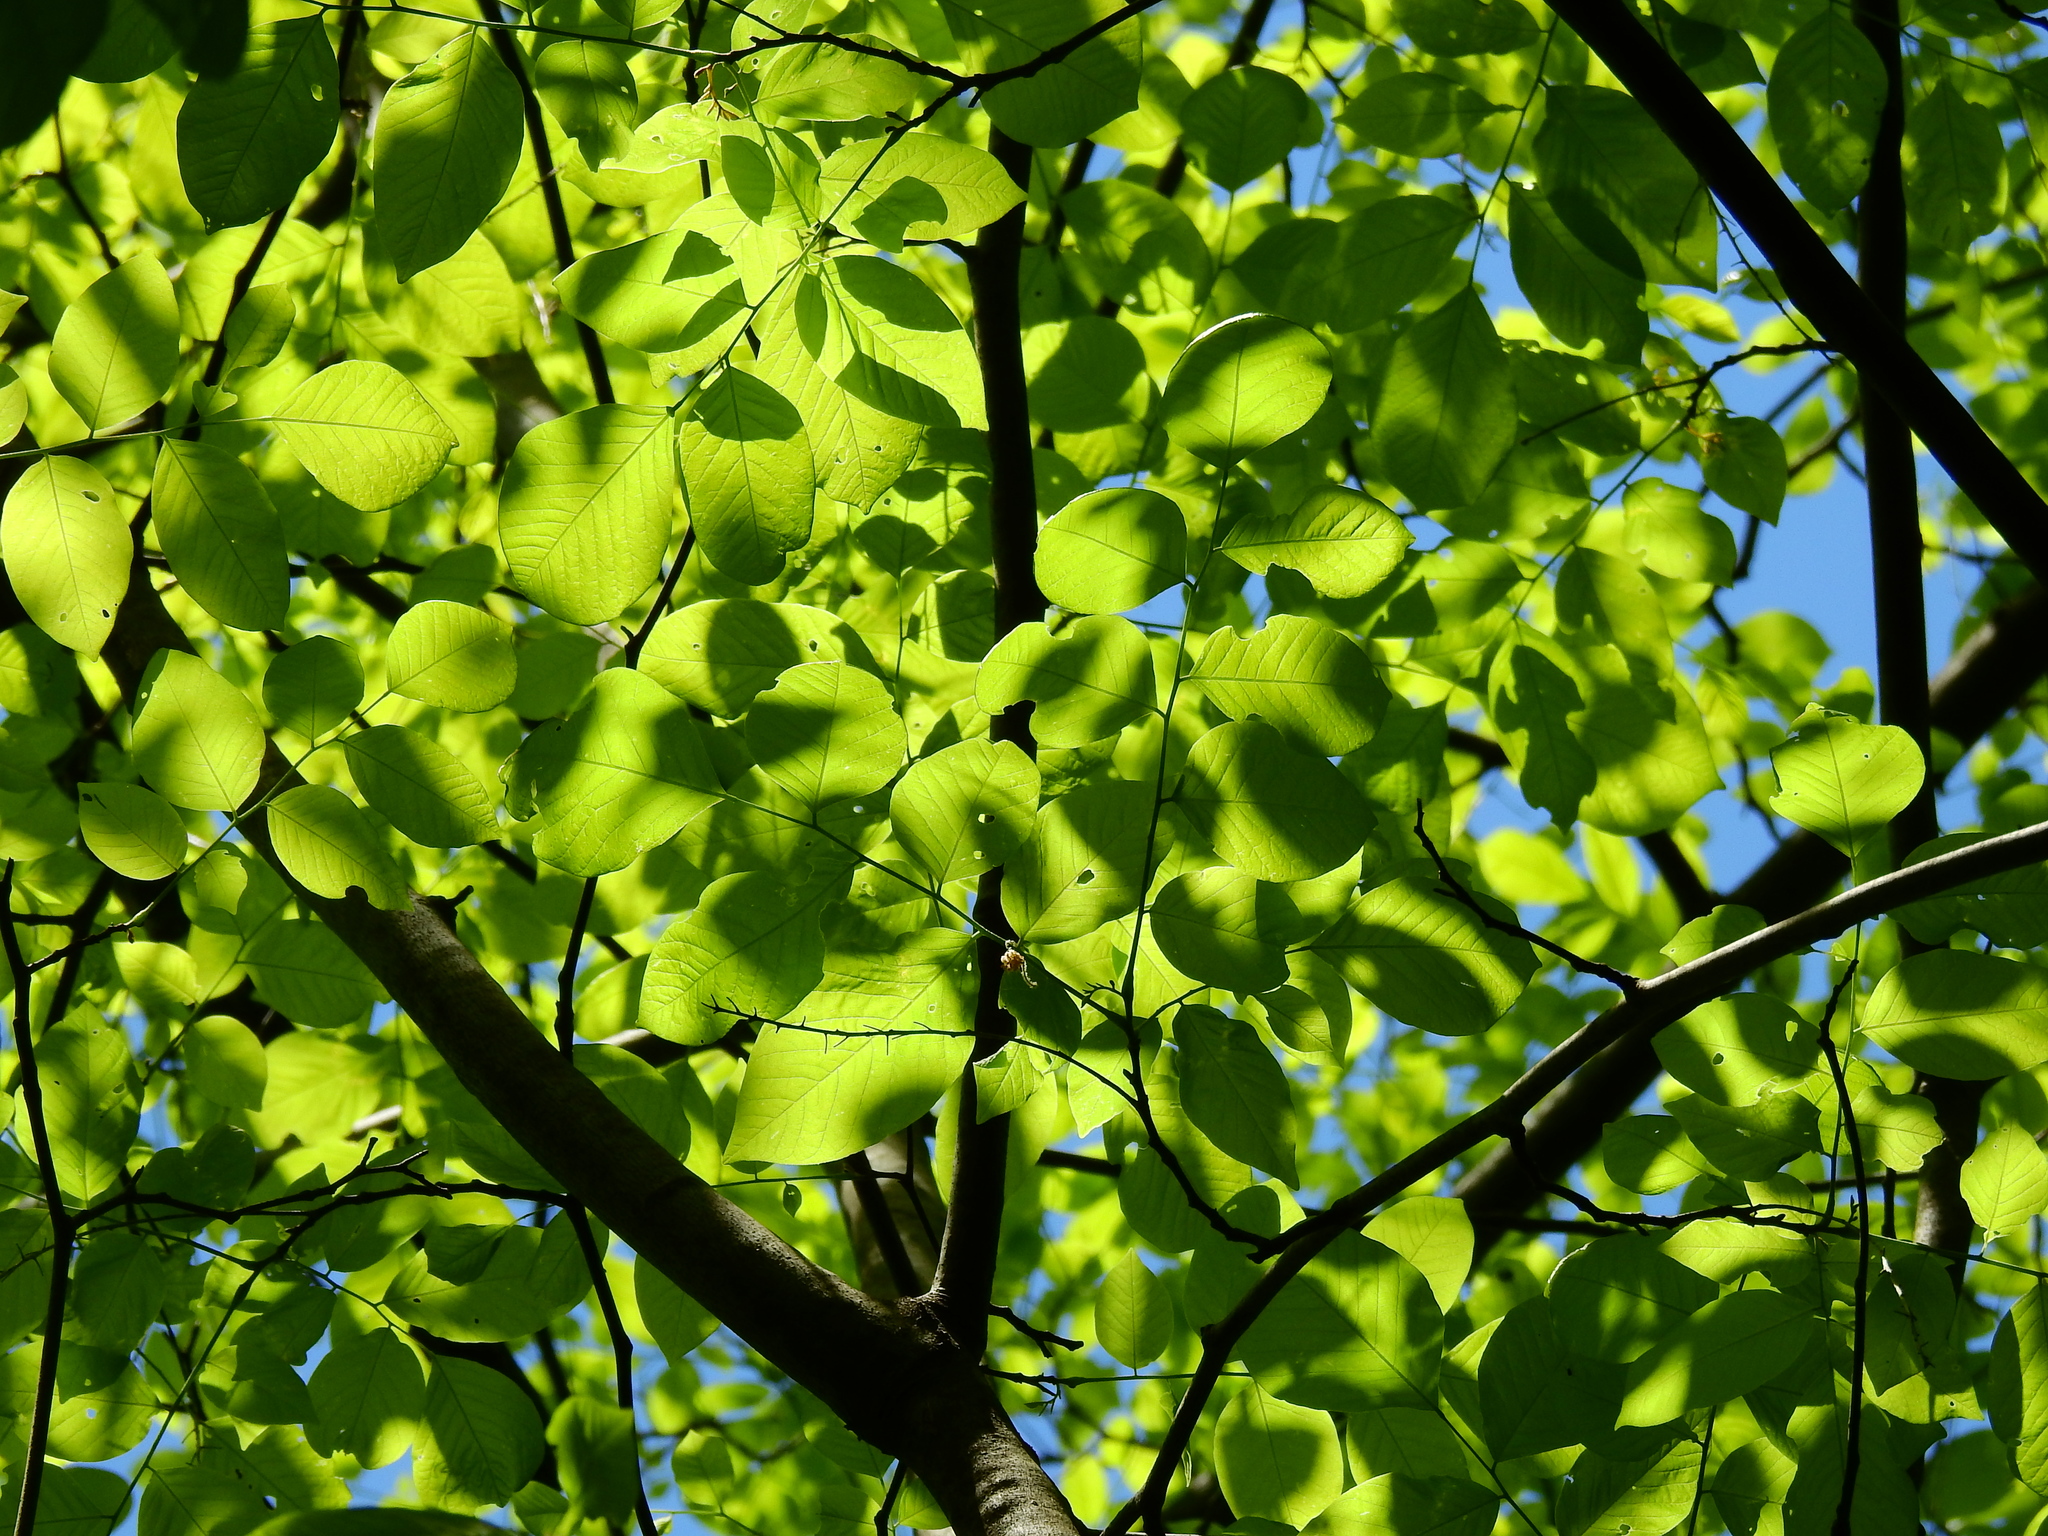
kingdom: Plantae
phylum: Tracheophyta
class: Magnoliopsida
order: Fabales
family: Fabaceae
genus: Cladrastis
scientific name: Cladrastis kentukea
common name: Kentucky yellow-wood
